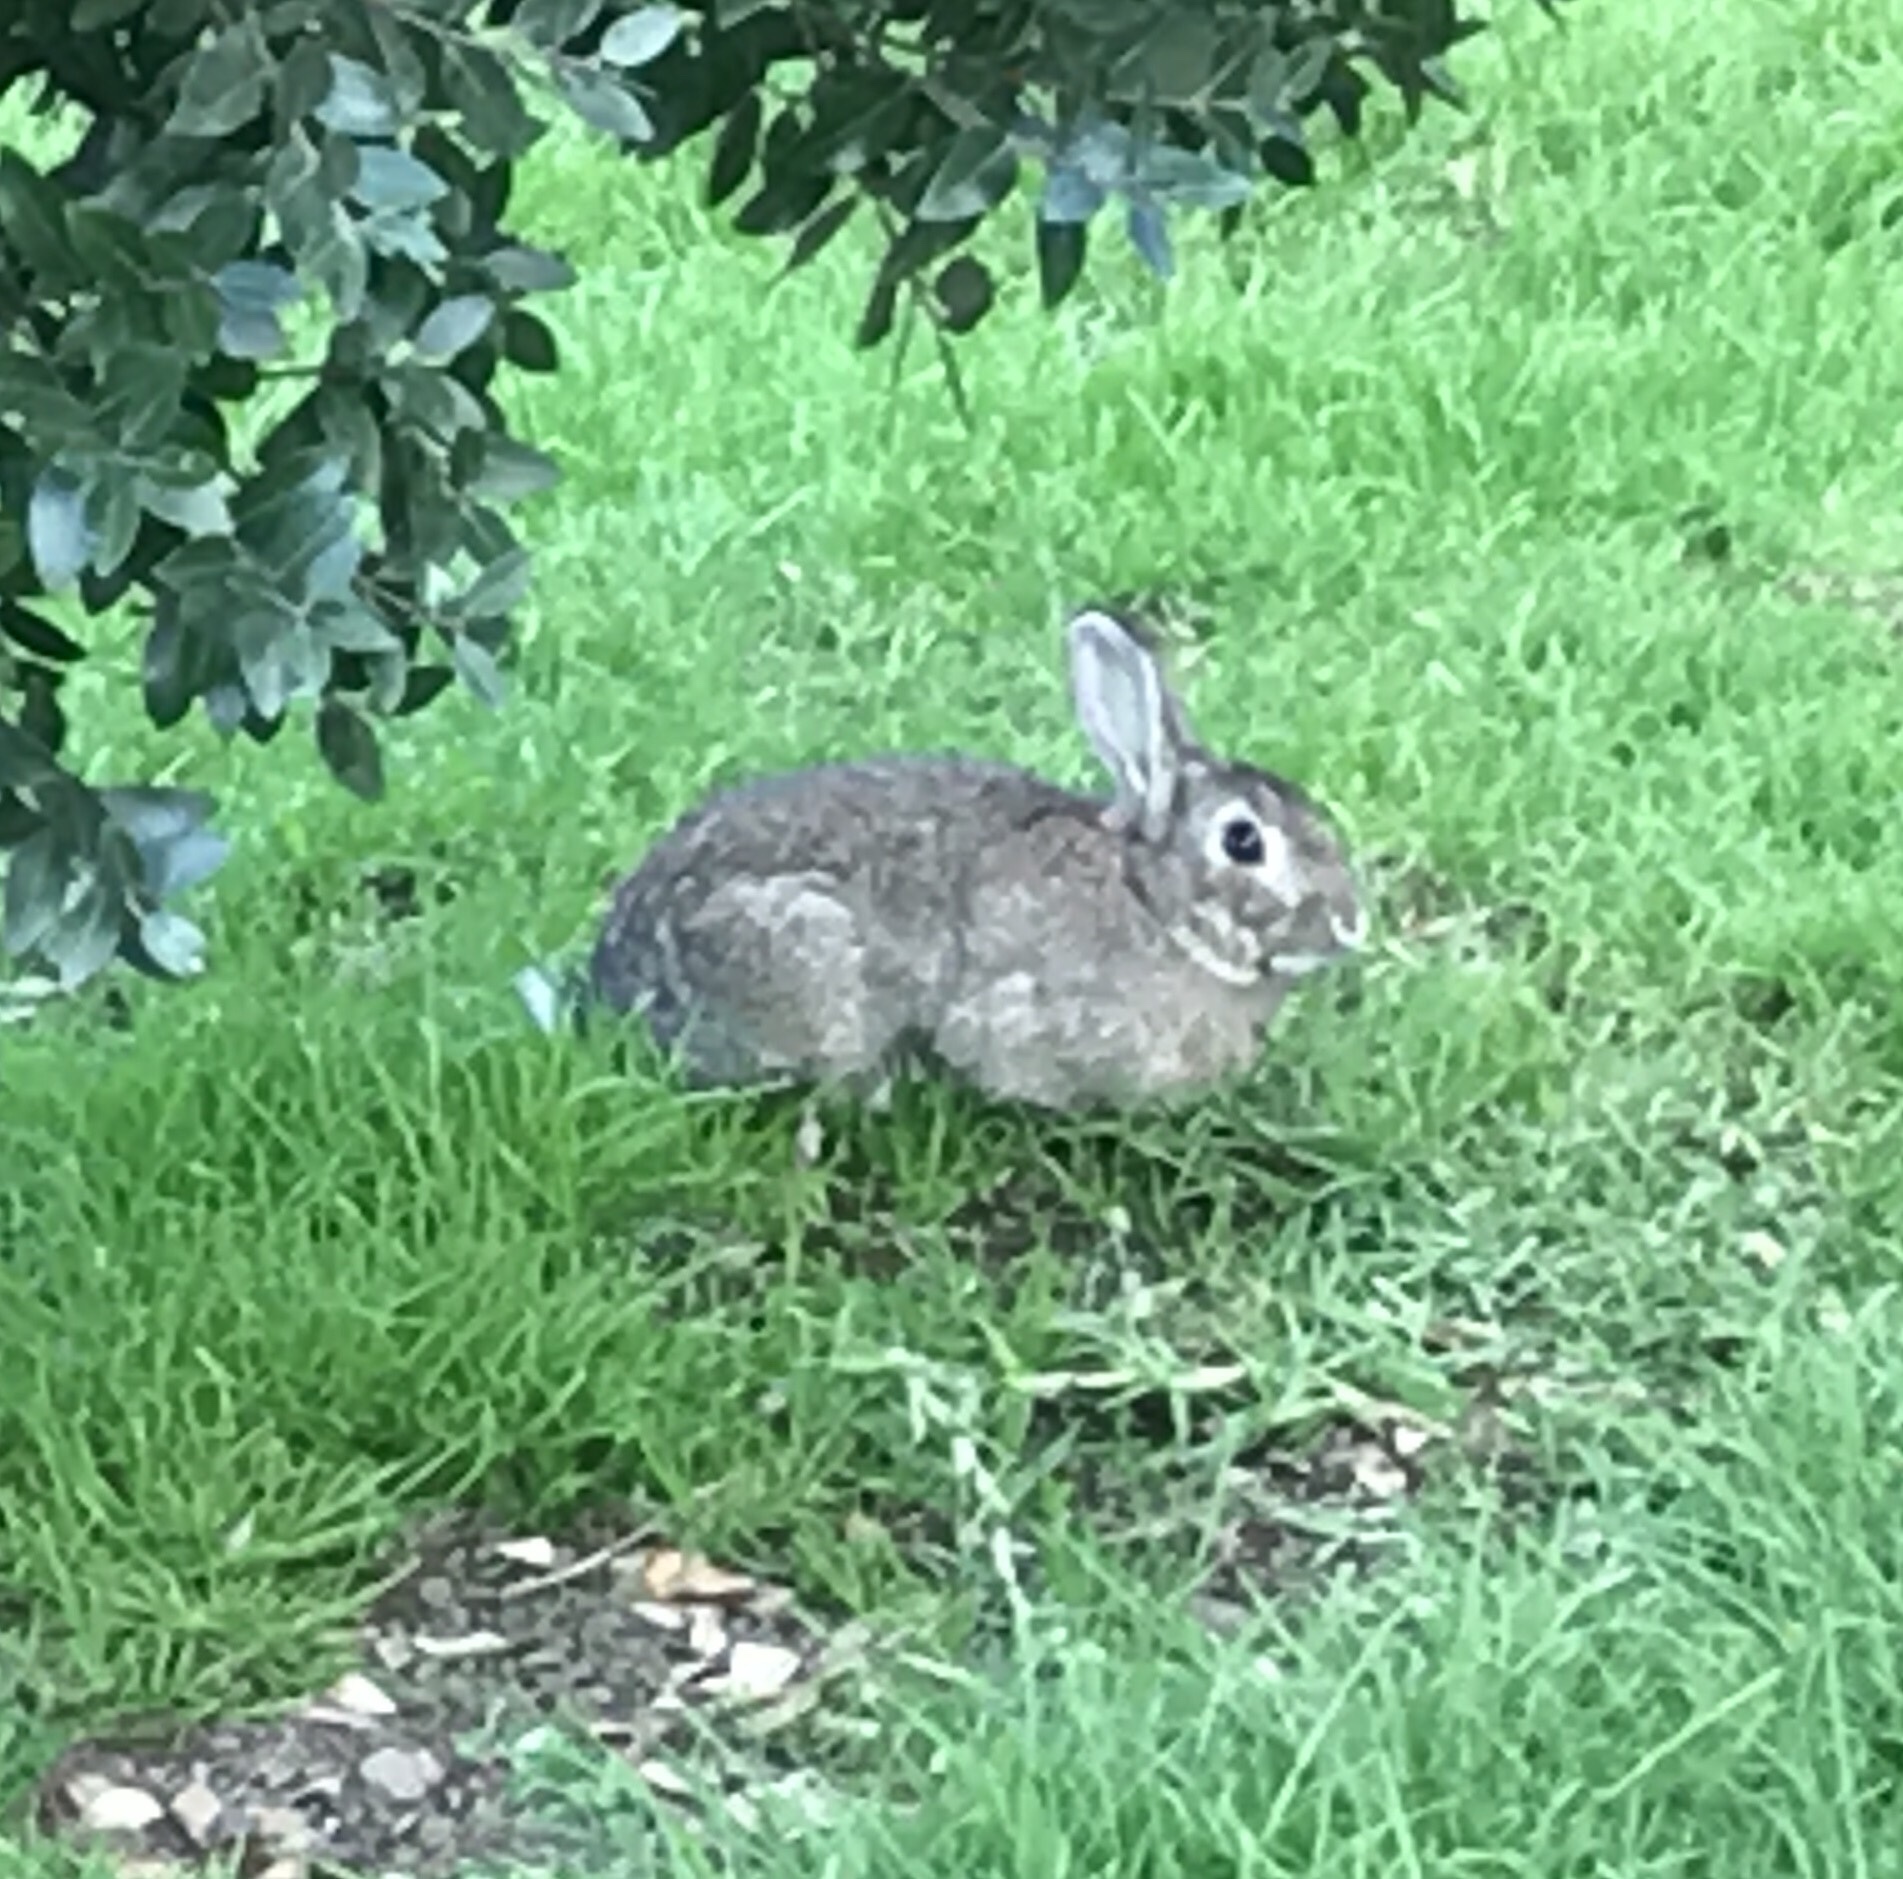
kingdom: Animalia
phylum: Chordata
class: Mammalia
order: Lagomorpha
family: Leporidae
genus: Oryctolagus
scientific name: Oryctolagus cuniculus
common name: European rabbit
